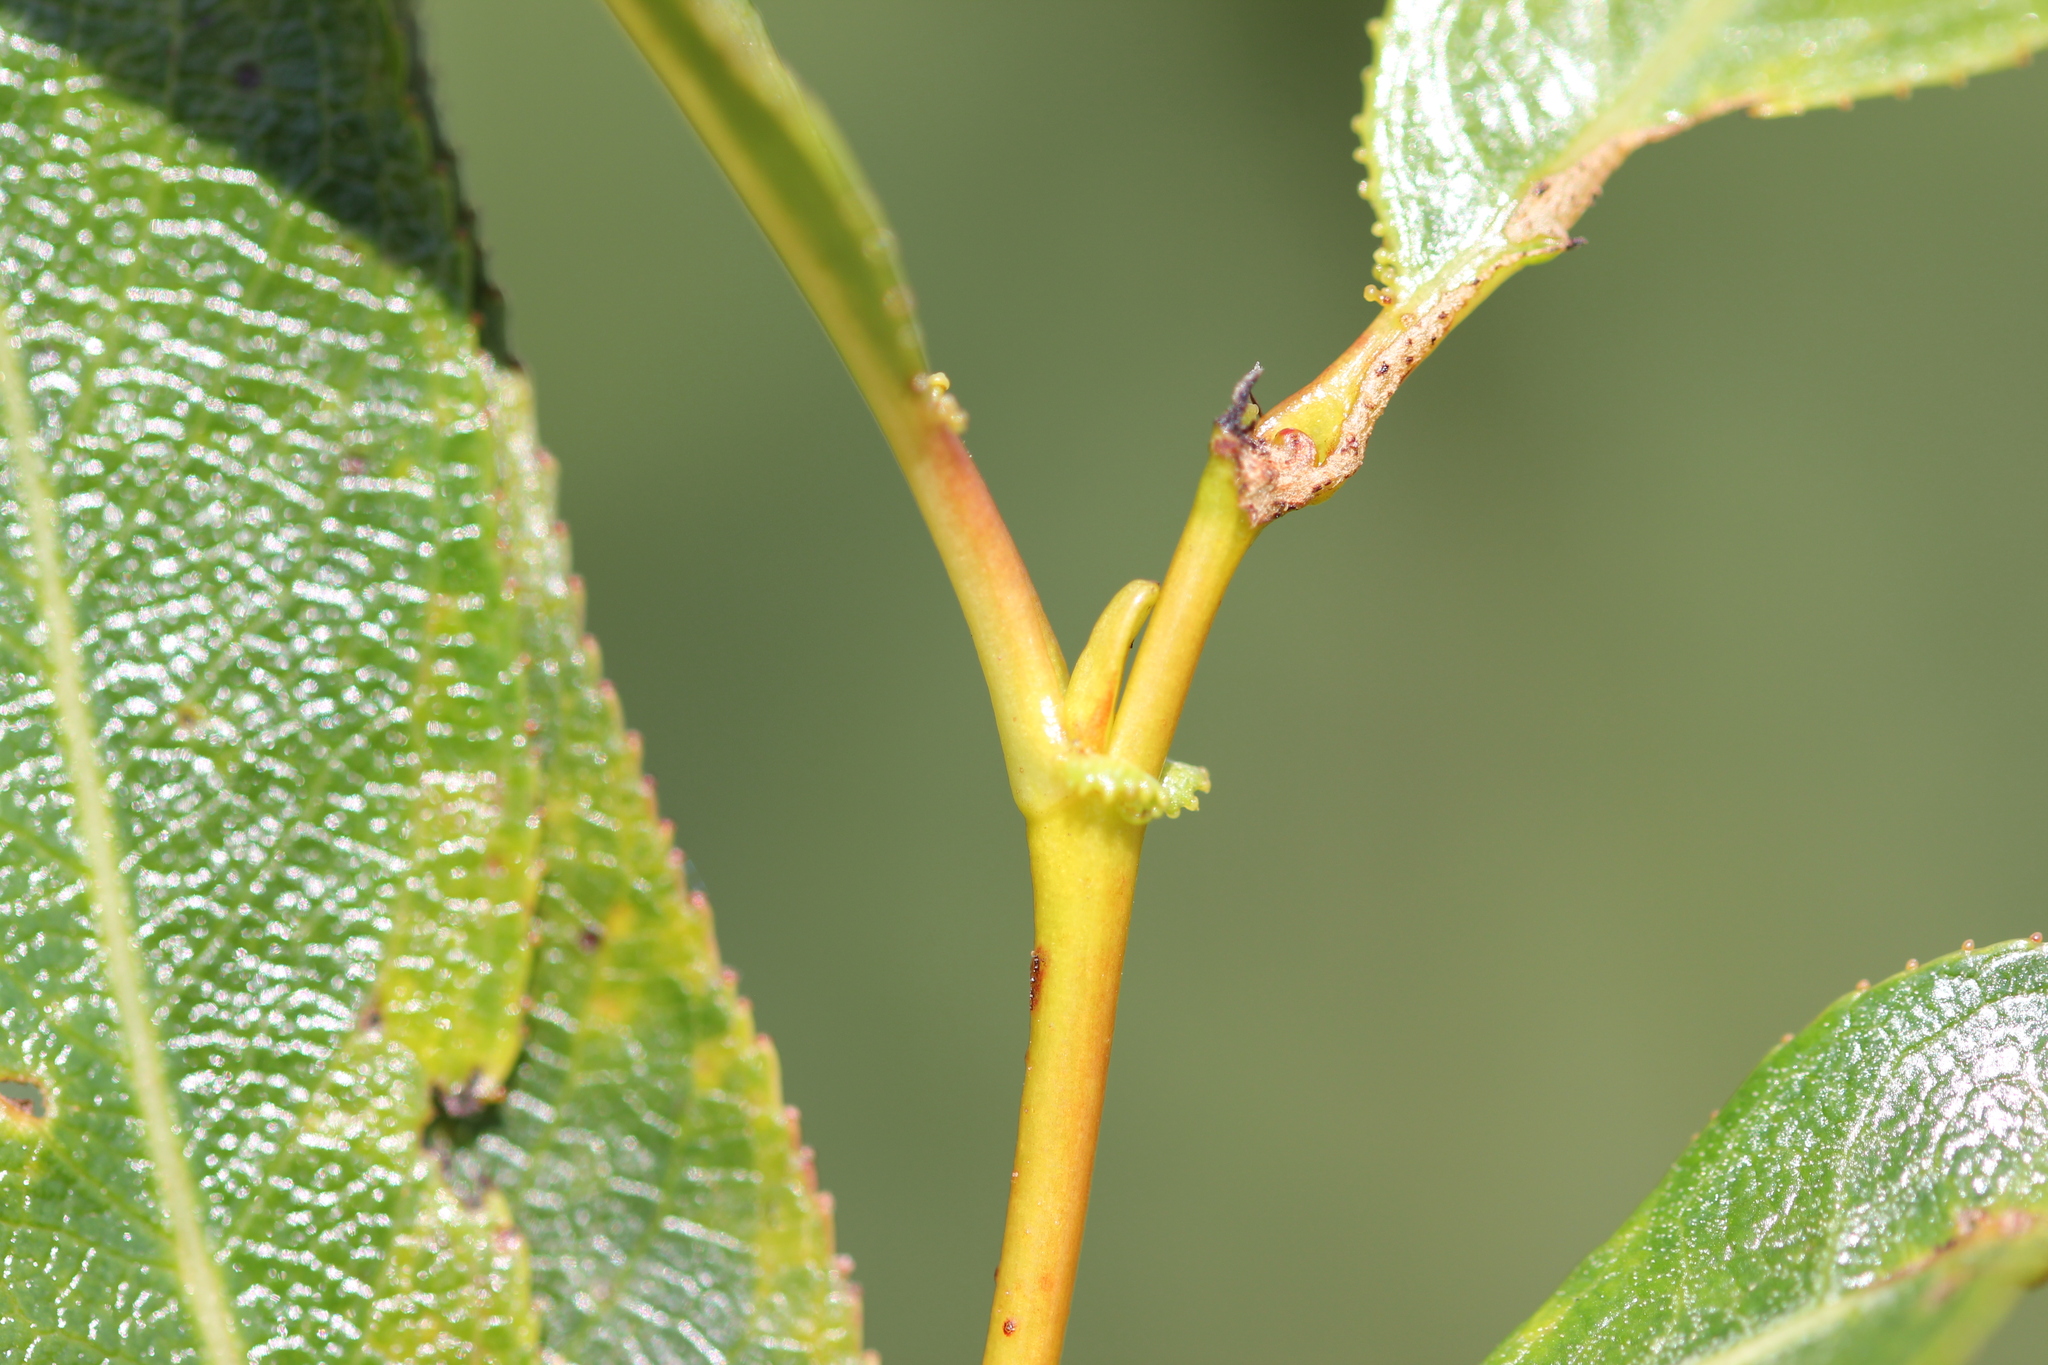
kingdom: Plantae
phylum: Tracheophyta
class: Magnoliopsida
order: Malpighiales
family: Salicaceae
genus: Salix
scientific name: Salix lucida
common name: Shining willow
